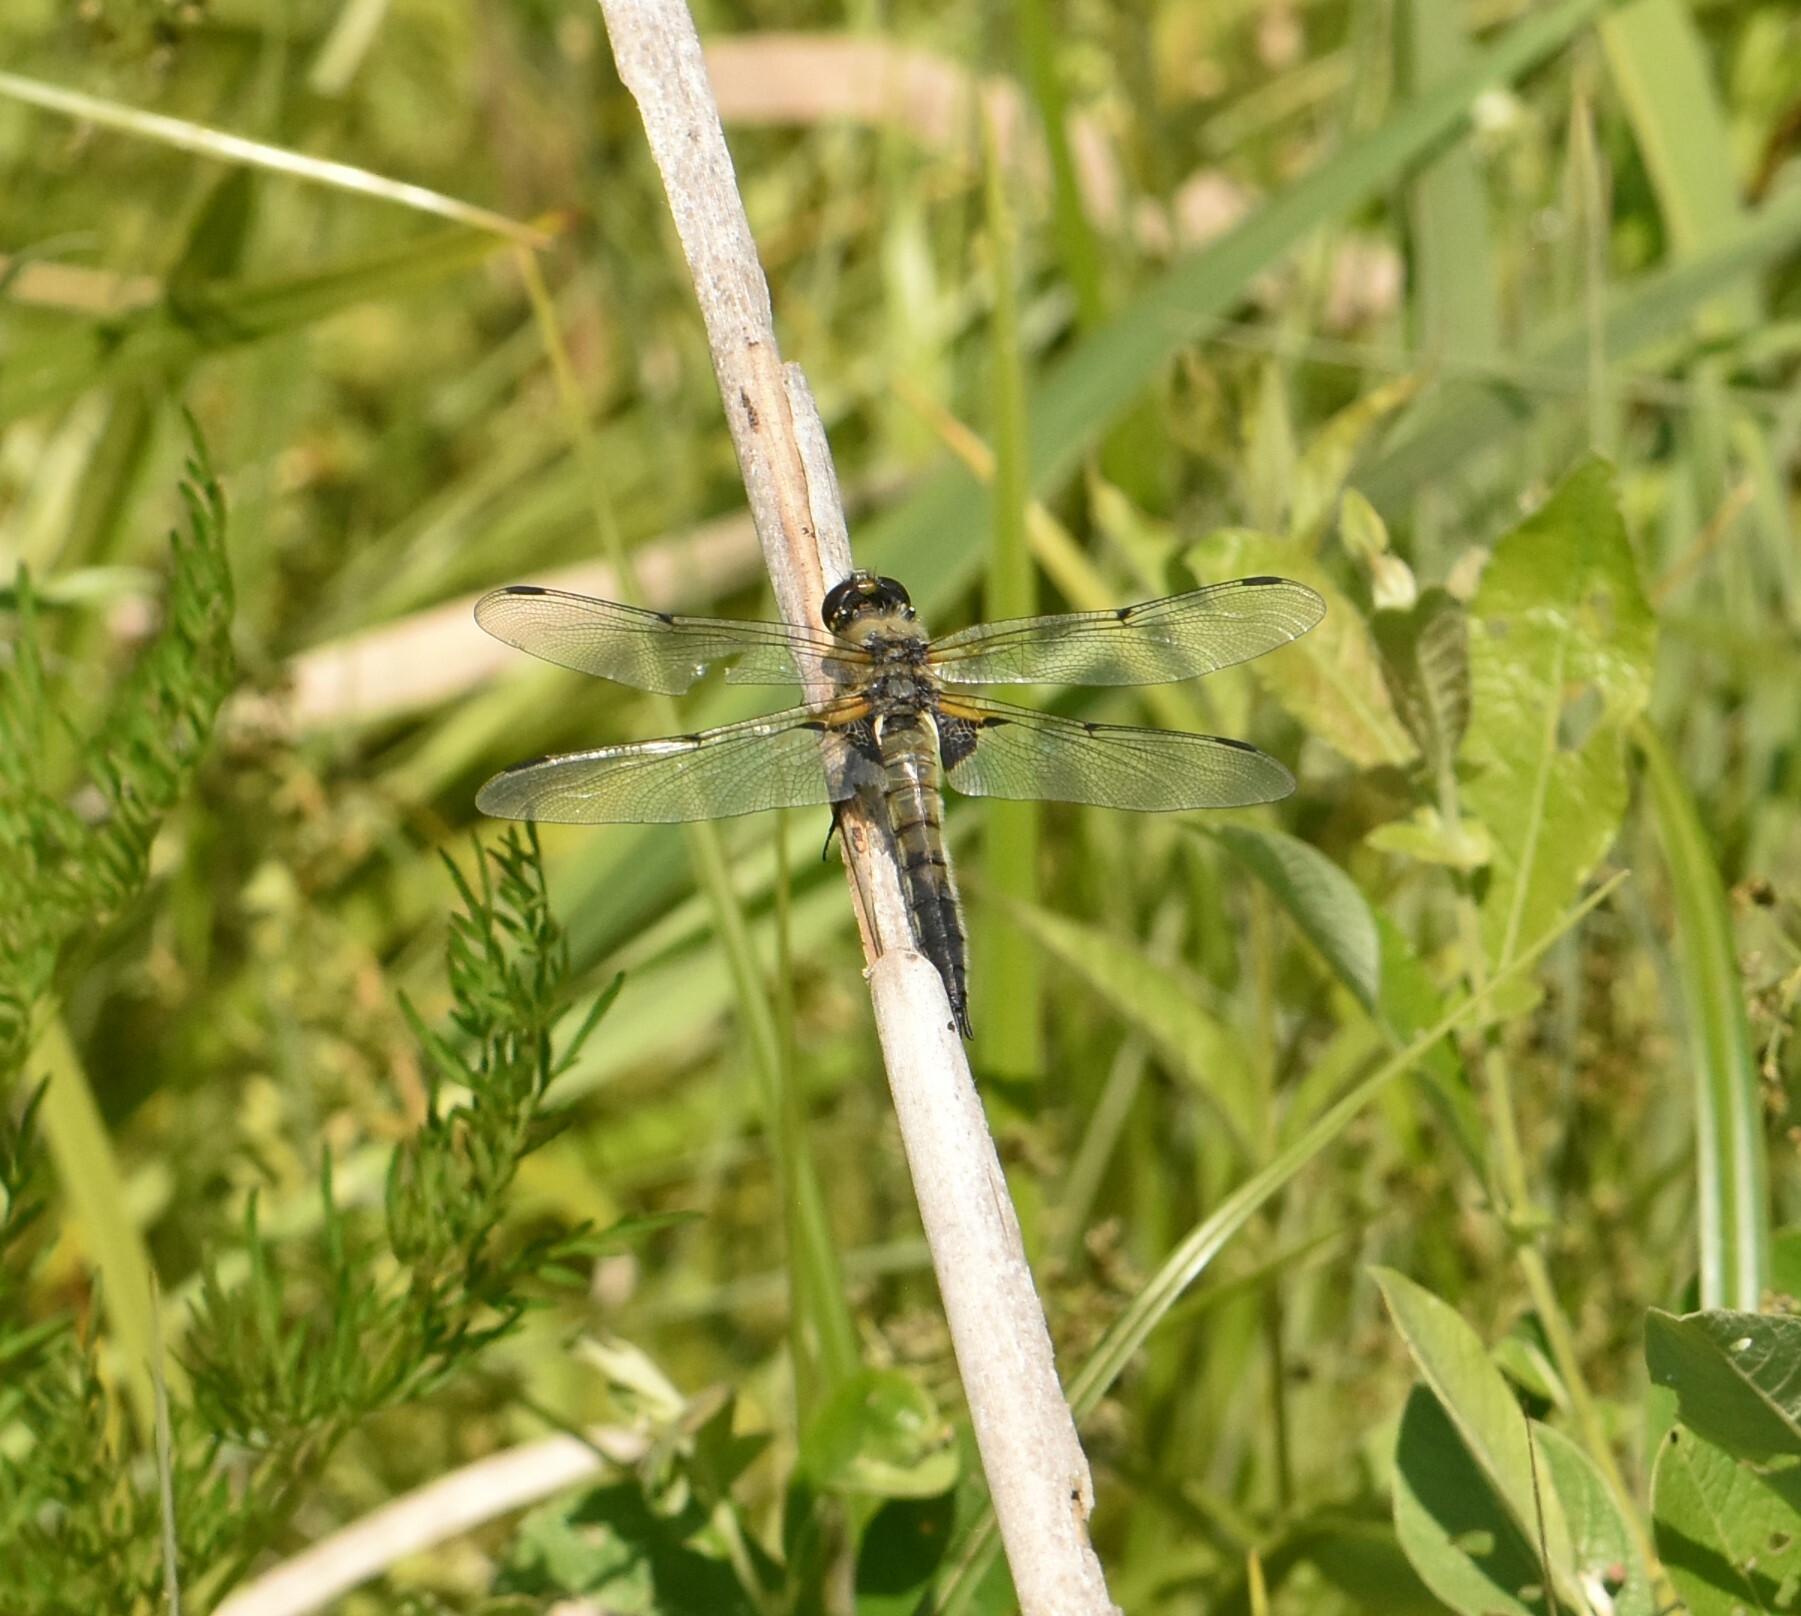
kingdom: Animalia
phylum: Arthropoda
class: Insecta
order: Odonata
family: Libellulidae
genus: Libellula
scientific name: Libellula quadrimaculata
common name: Four-spotted chaser
